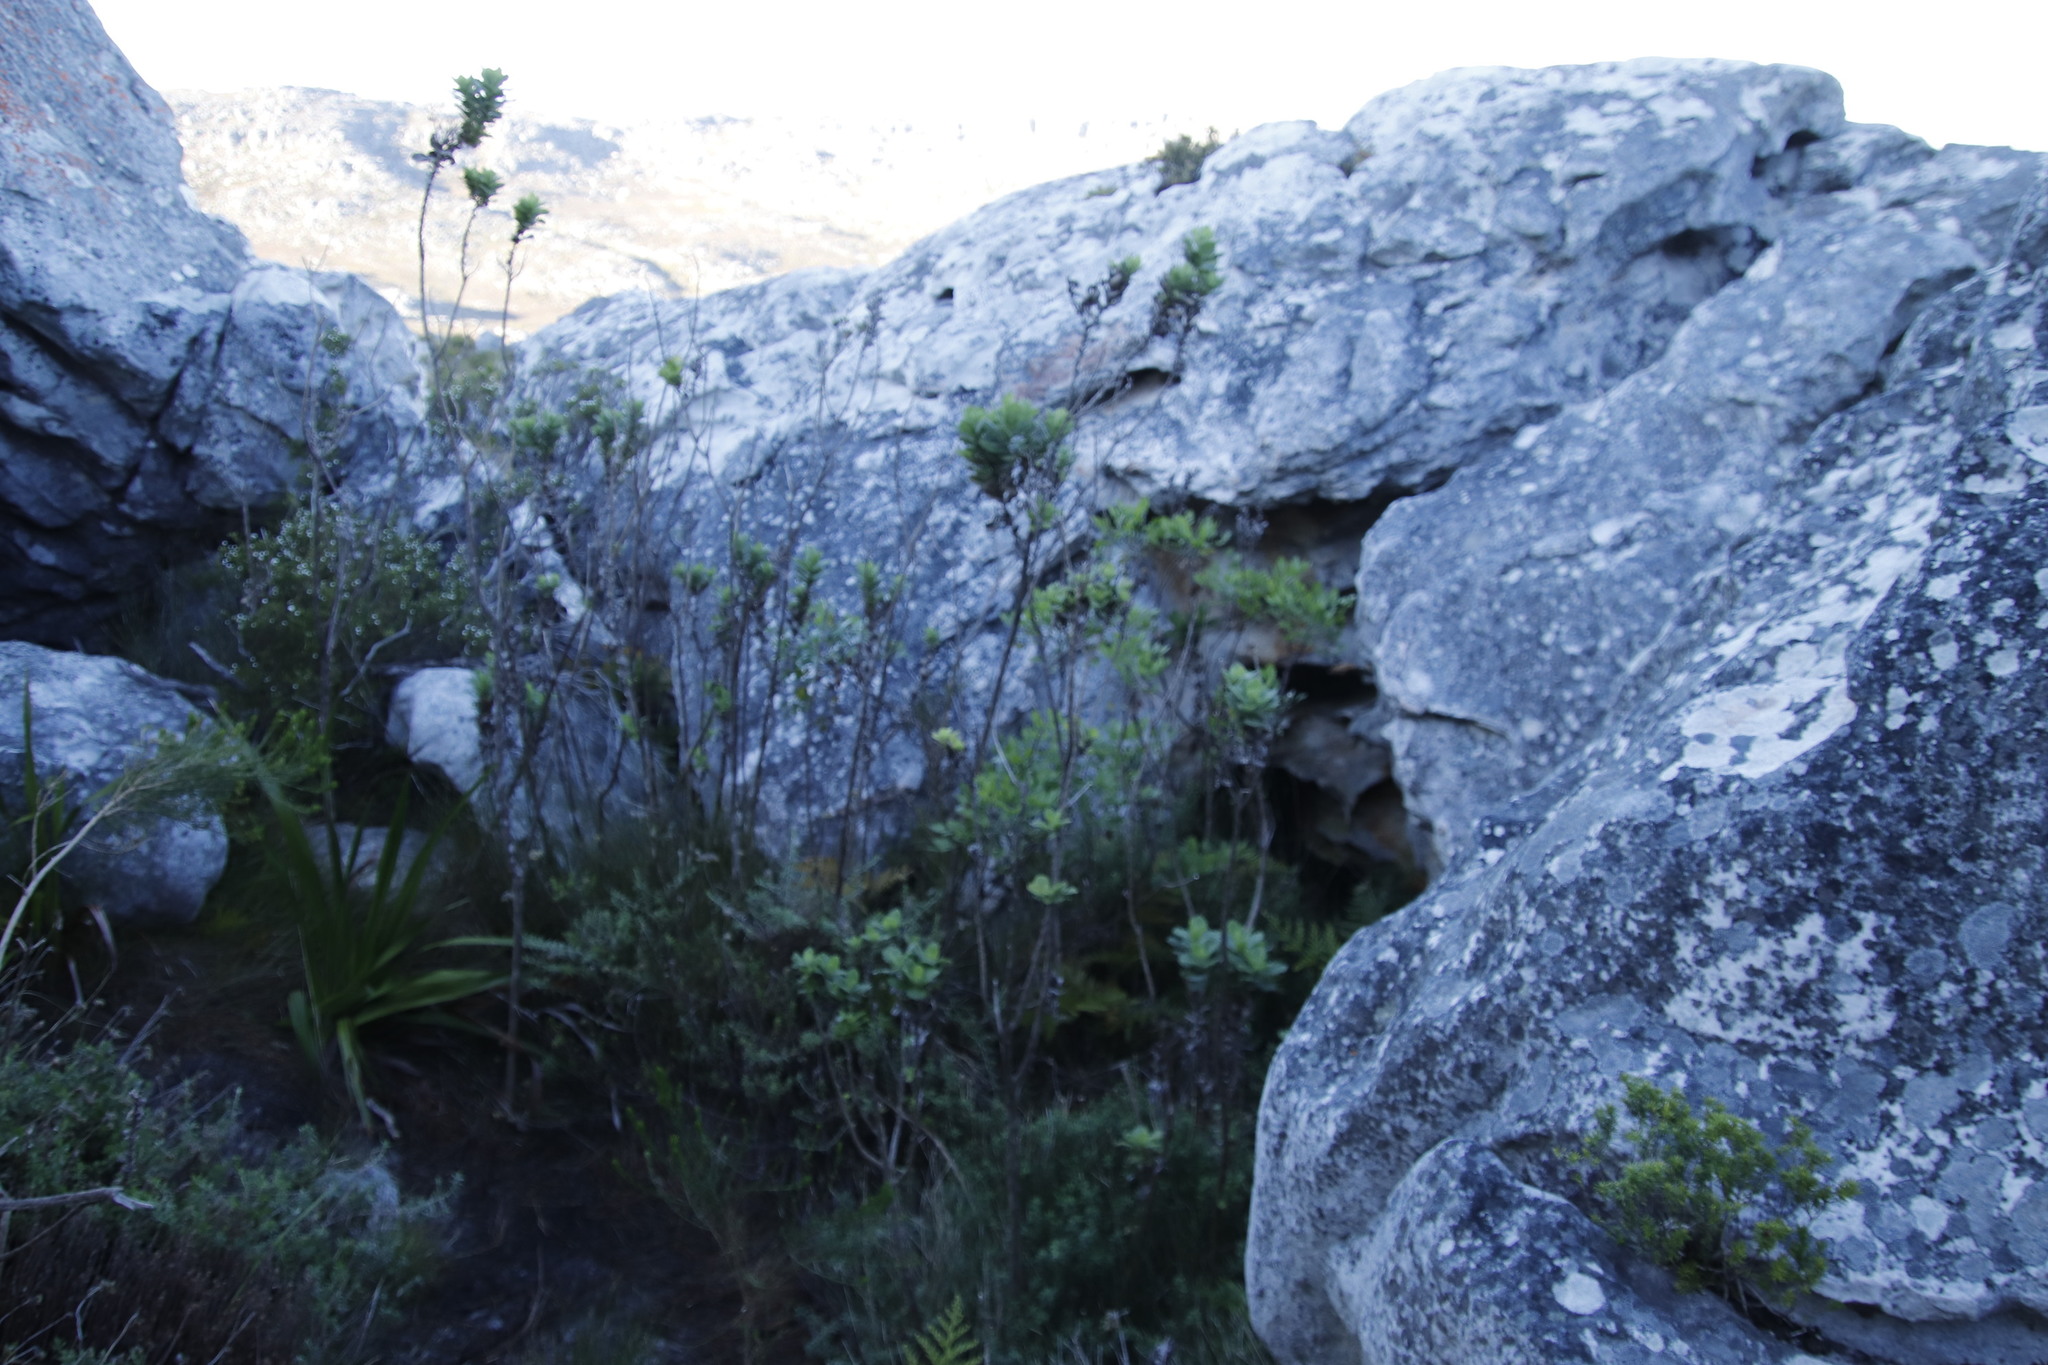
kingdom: Plantae
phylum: Tracheophyta
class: Magnoliopsida
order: Asterales
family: Asteraceae
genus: Senecio
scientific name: Senecio rigidus
